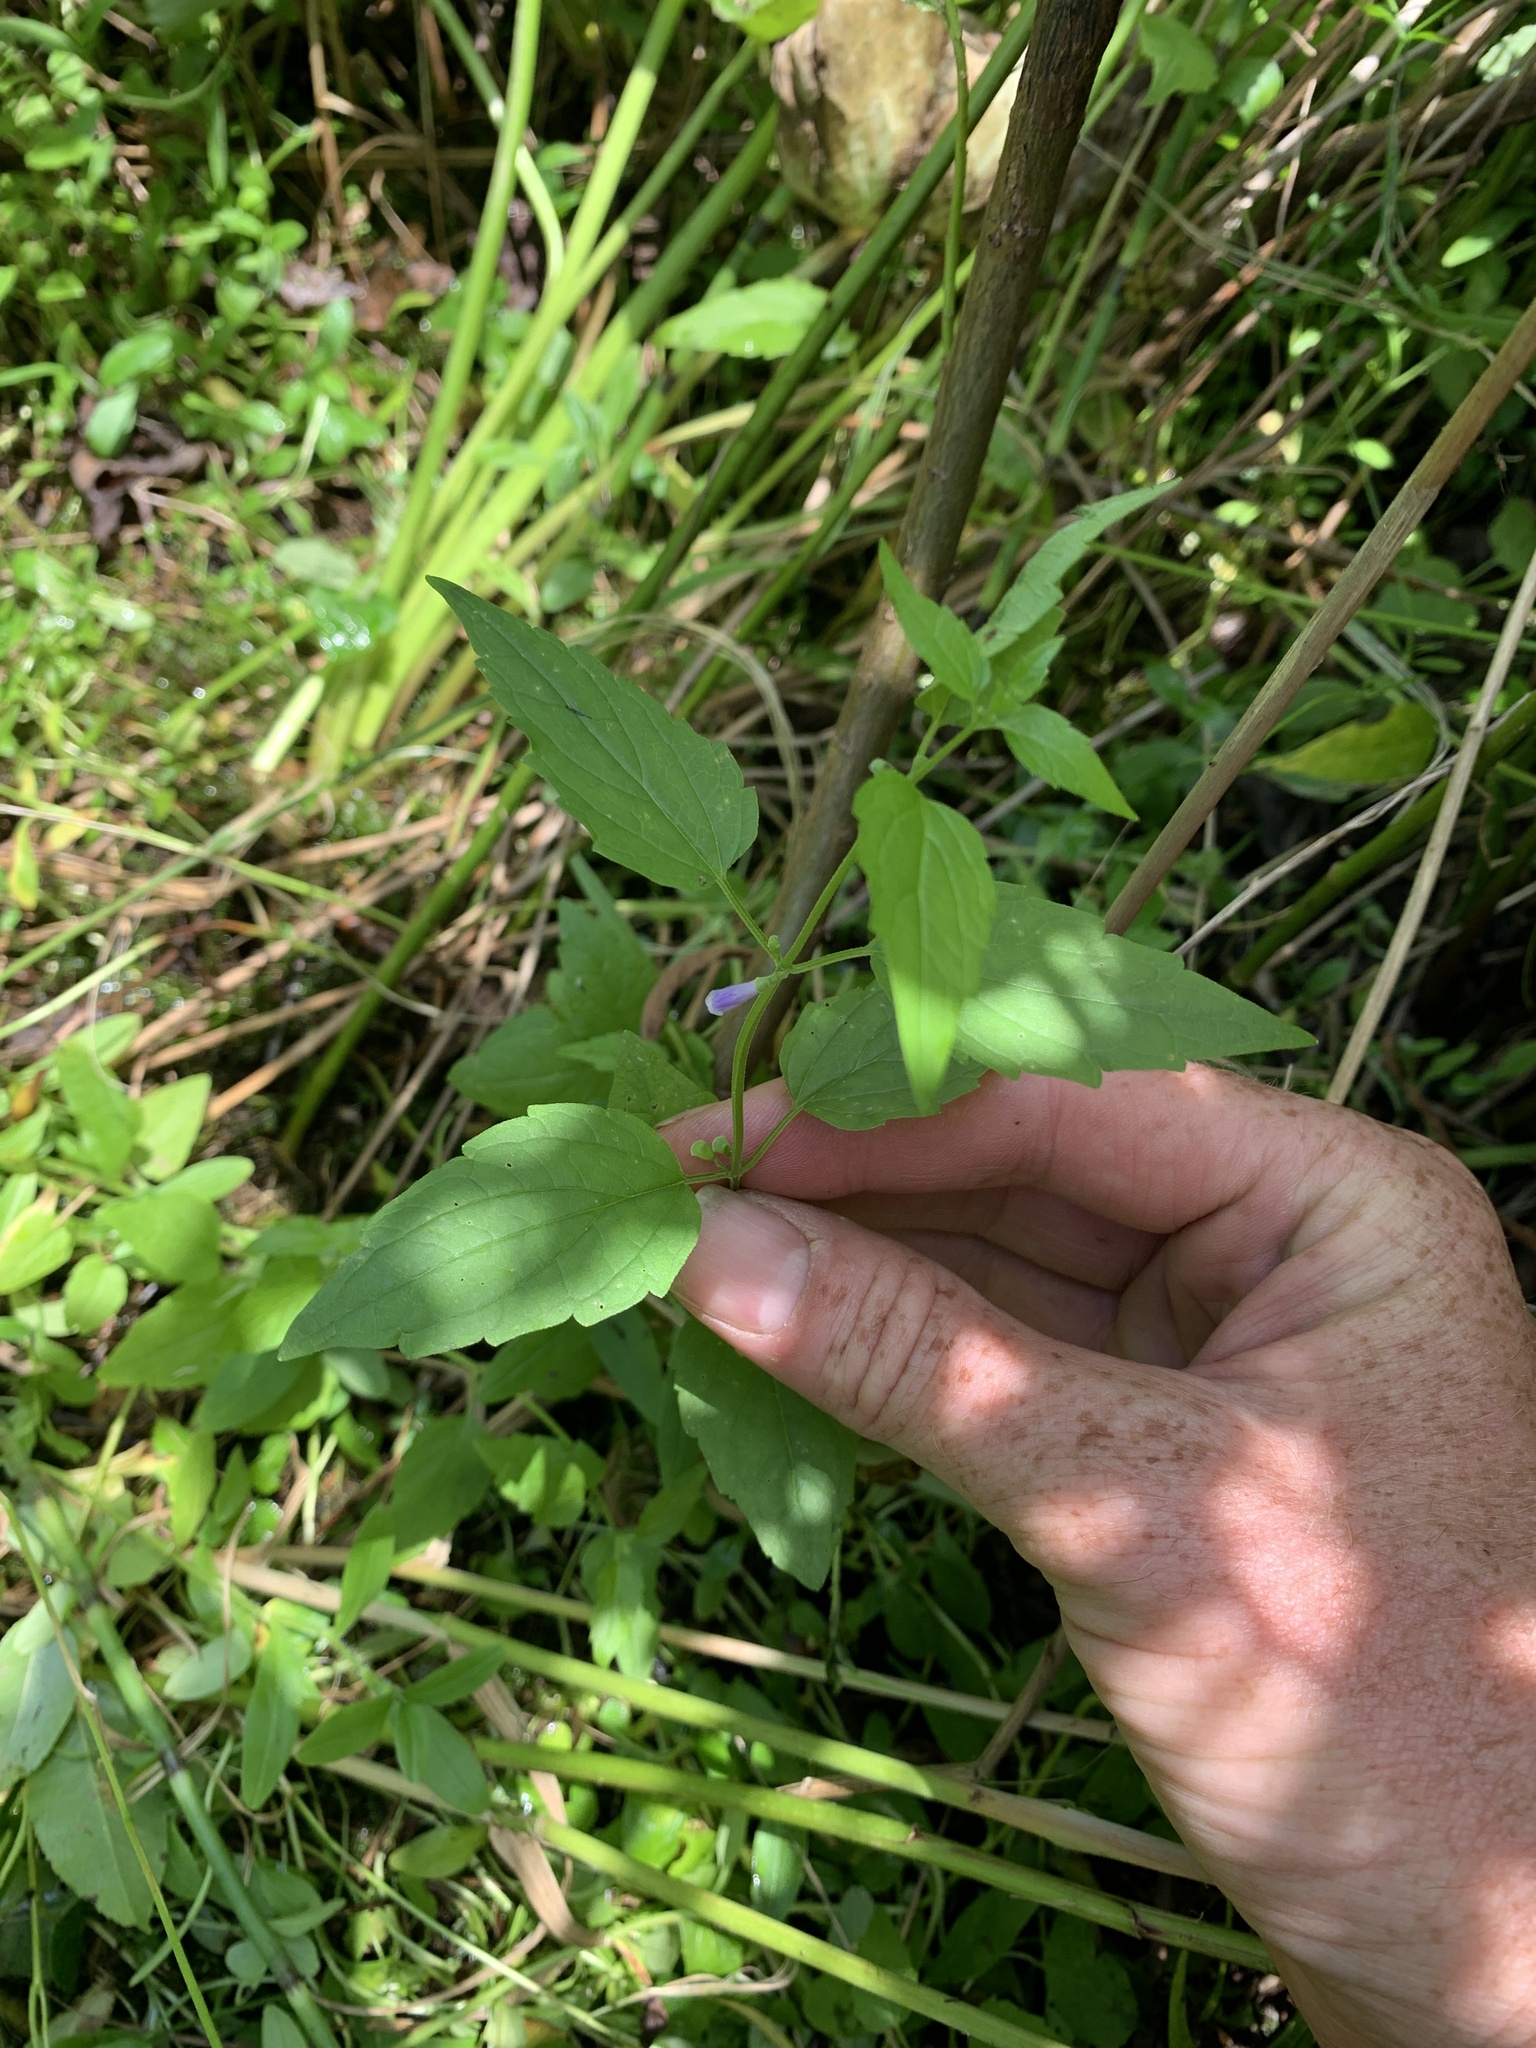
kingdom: Plantae
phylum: Tracheophyta
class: Magnoliopsida
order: Lamiales
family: Lamiaceae
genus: Scutellaria
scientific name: Scutellaria lateriflora
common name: Blue skullcap
